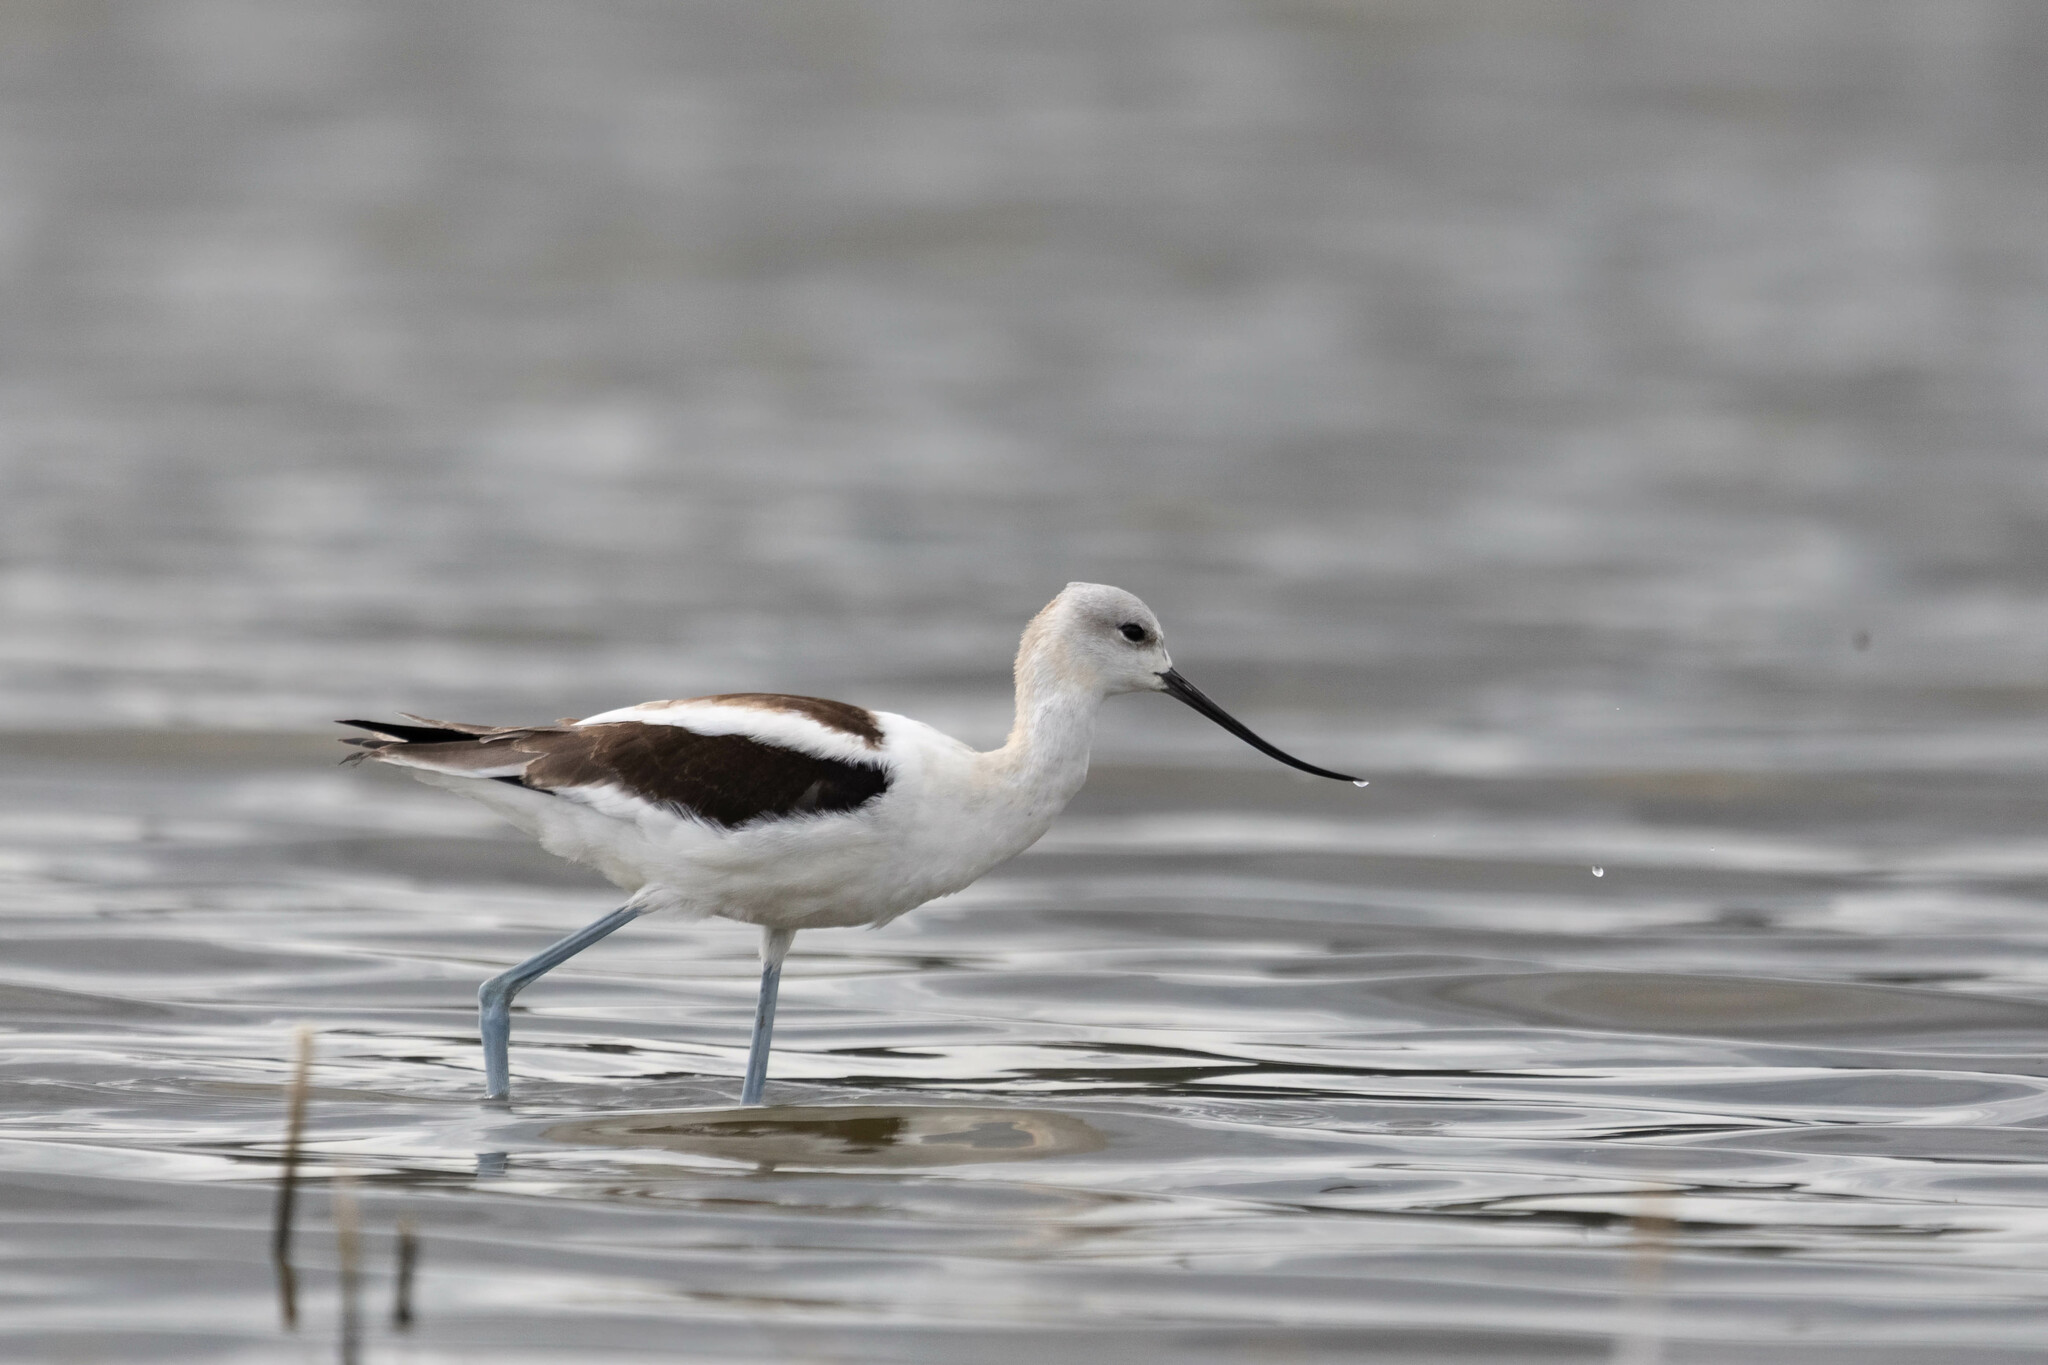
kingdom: Animalia
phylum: Chordata
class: Aves
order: Charadriiformes
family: Recurvirostridae
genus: Recurvirostra
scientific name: Recurvirostra americana
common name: American avocet
